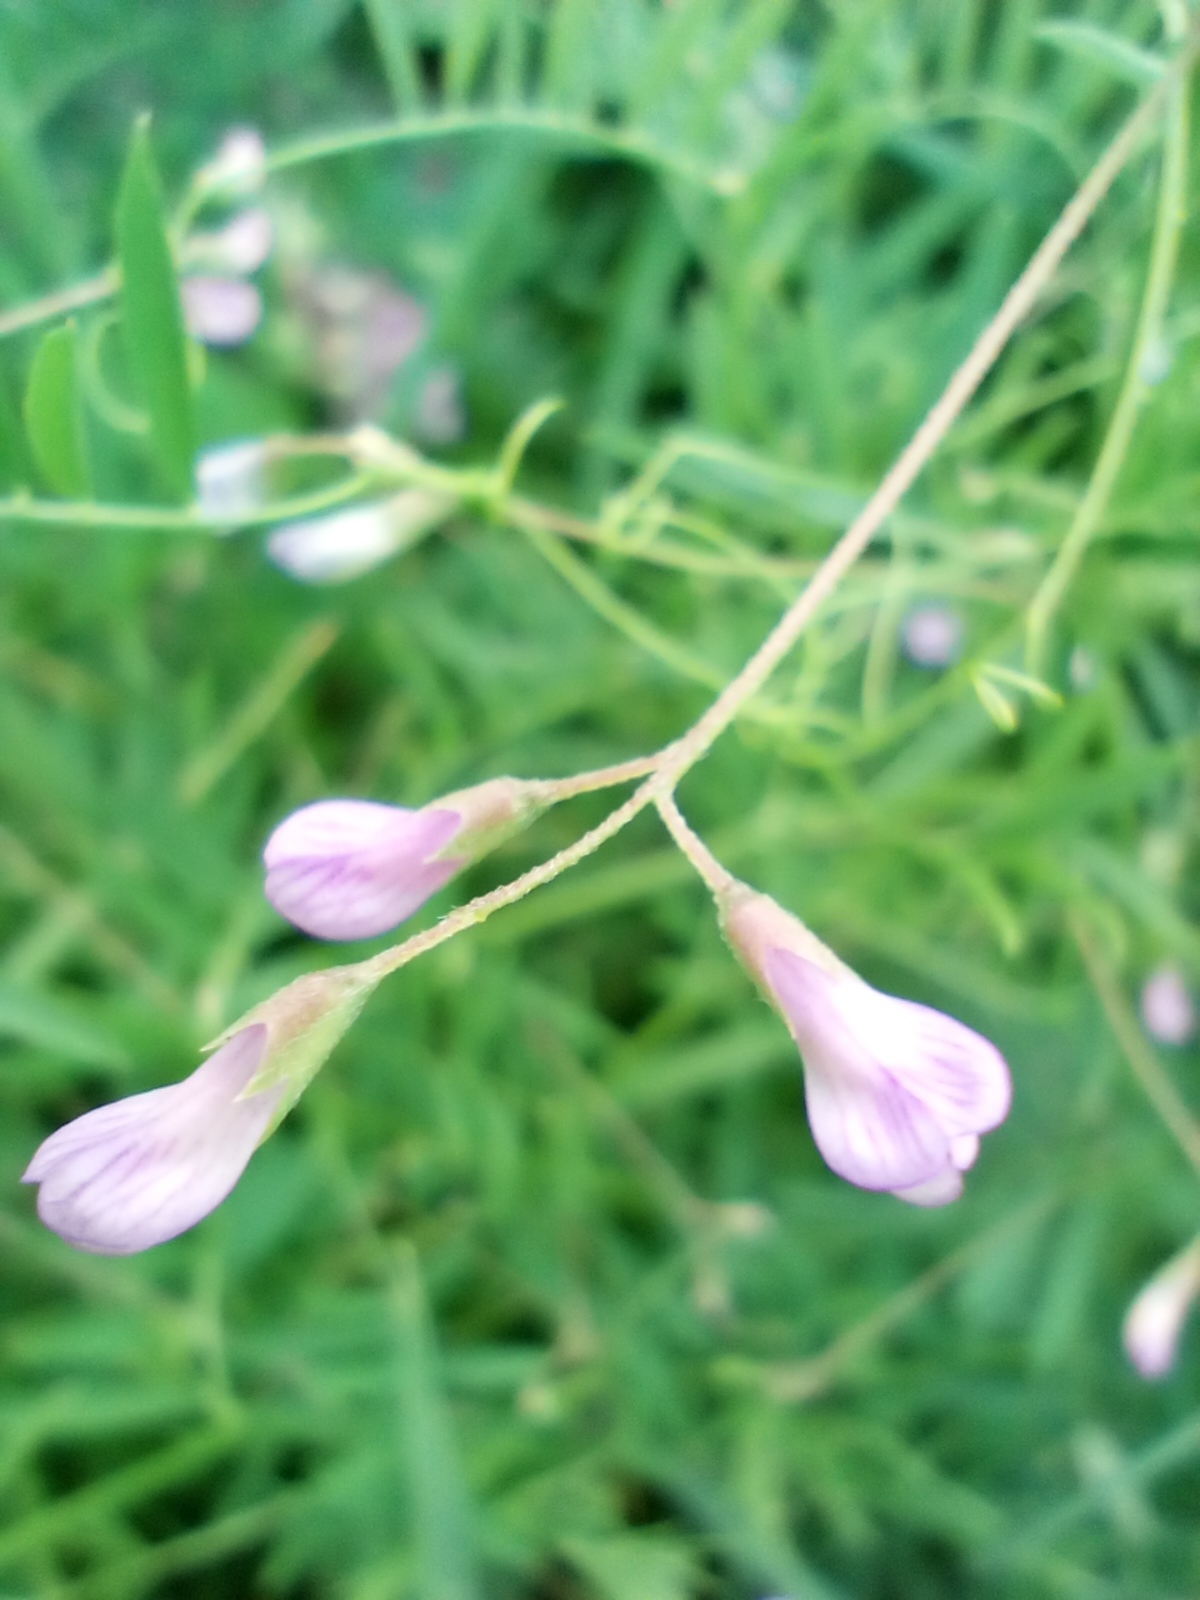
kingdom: Plantae
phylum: Tracheophyta
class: Magnoliopsida
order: Fabales
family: Fabaceae
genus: Vicia
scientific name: Vicia tetrasperma
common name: Smooth tare
